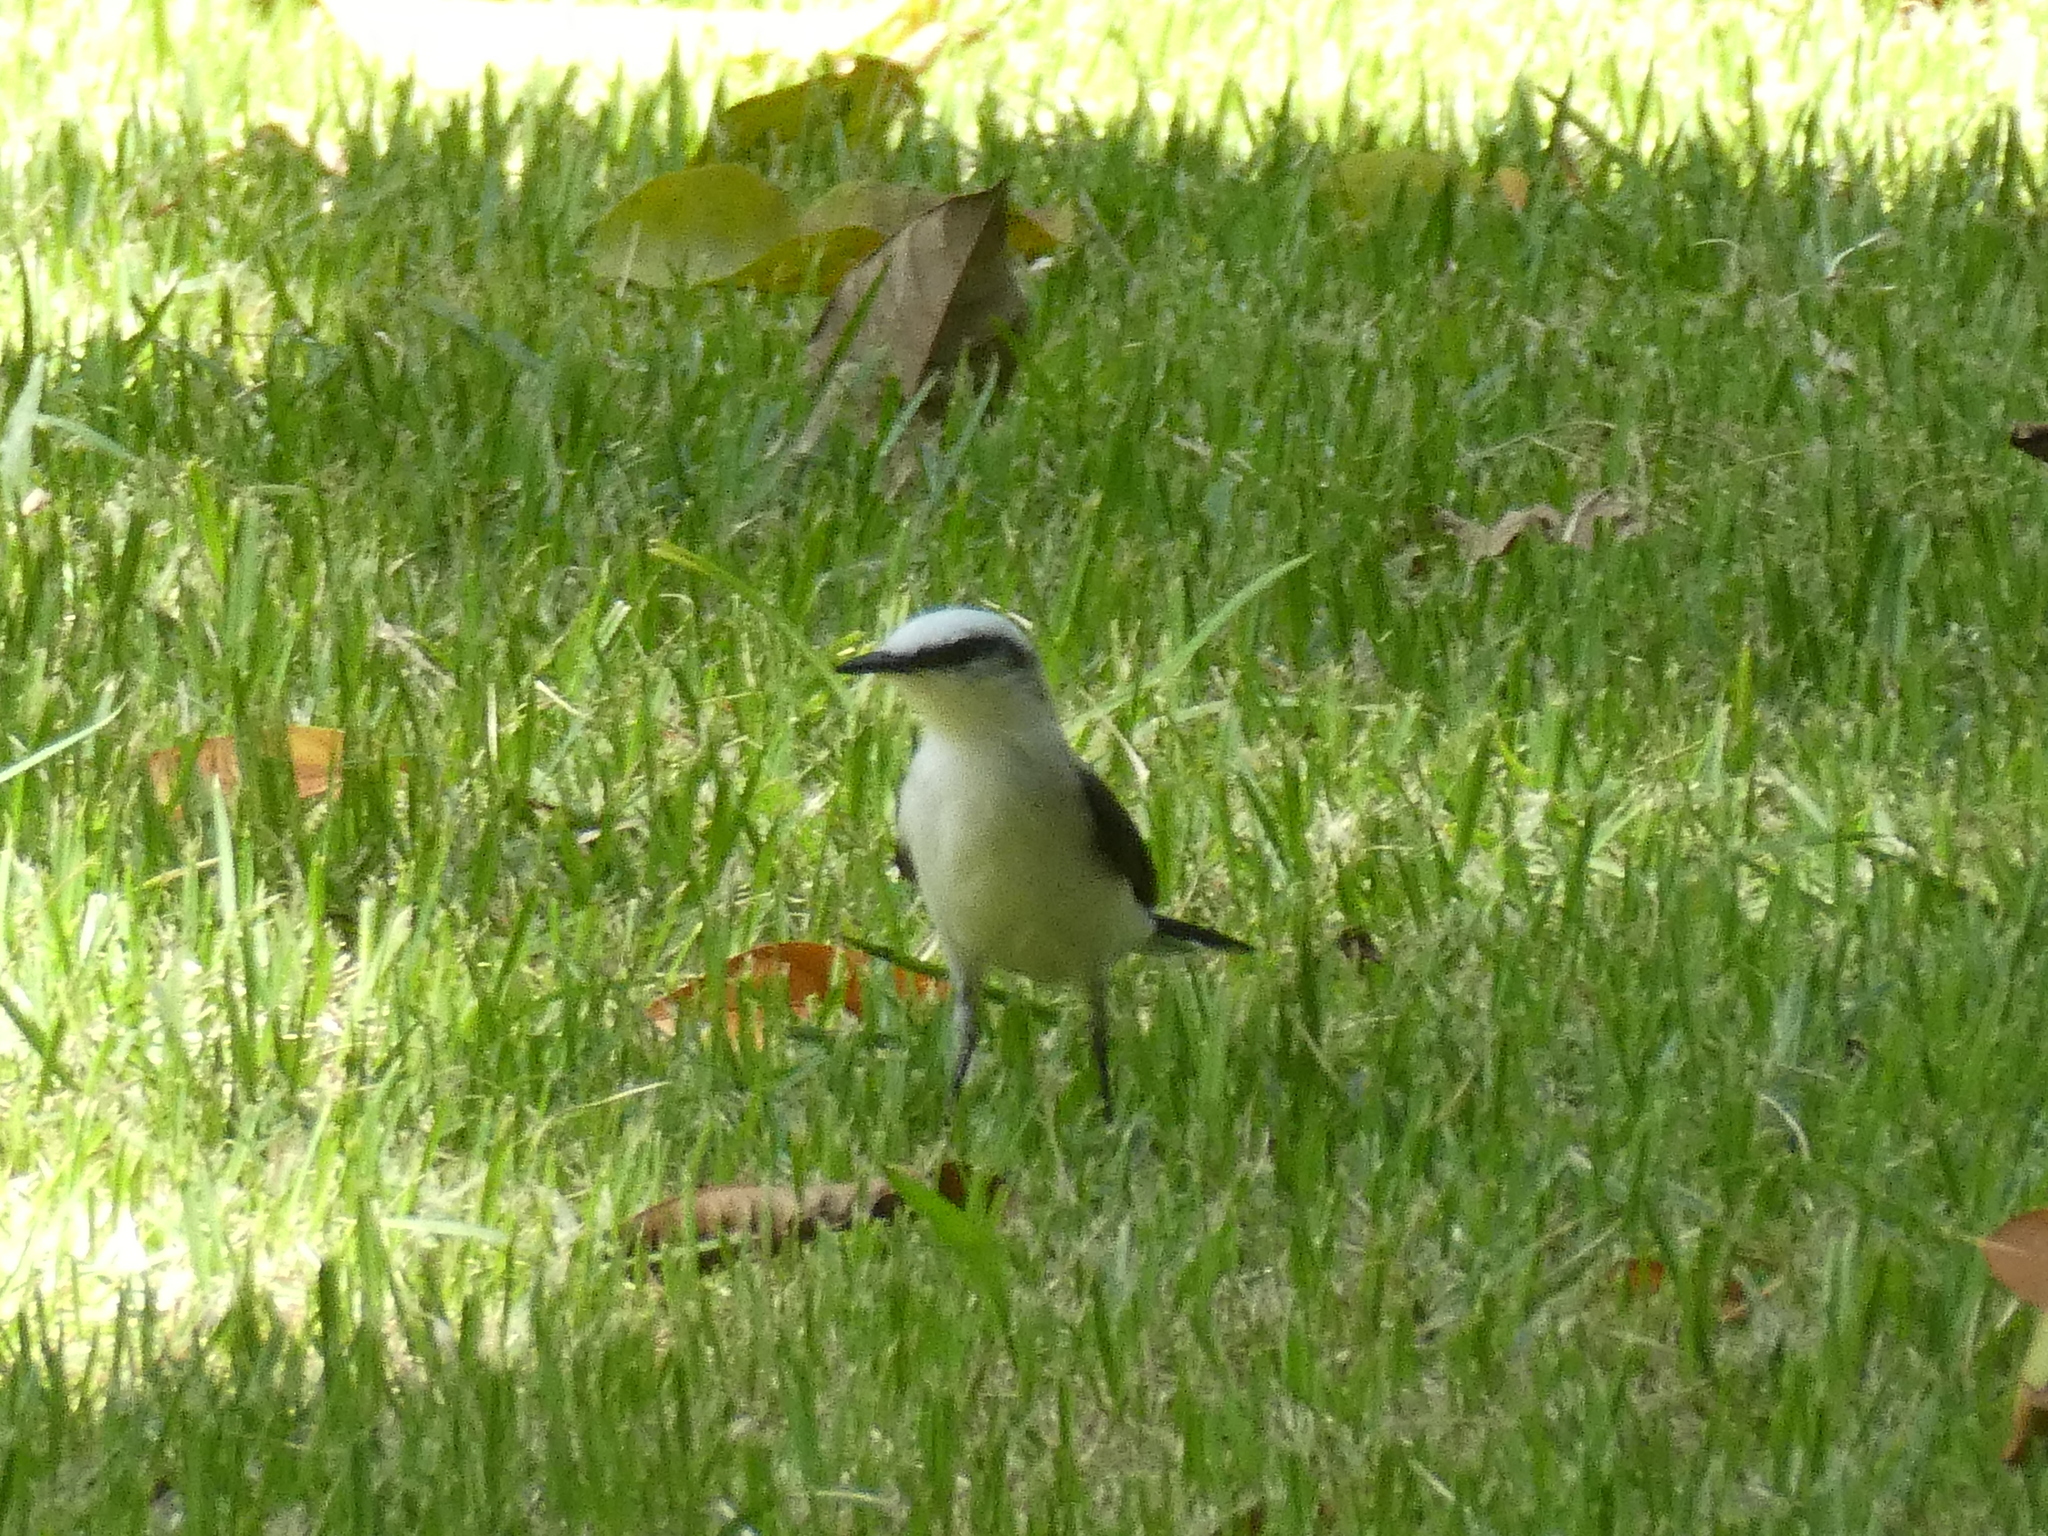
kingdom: Animalia
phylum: Chordata
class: Aves
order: Passeriformes
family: Tyrannidae
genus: Fluvicola
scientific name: Fluvicola nengeta
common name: Masked water tyrant
